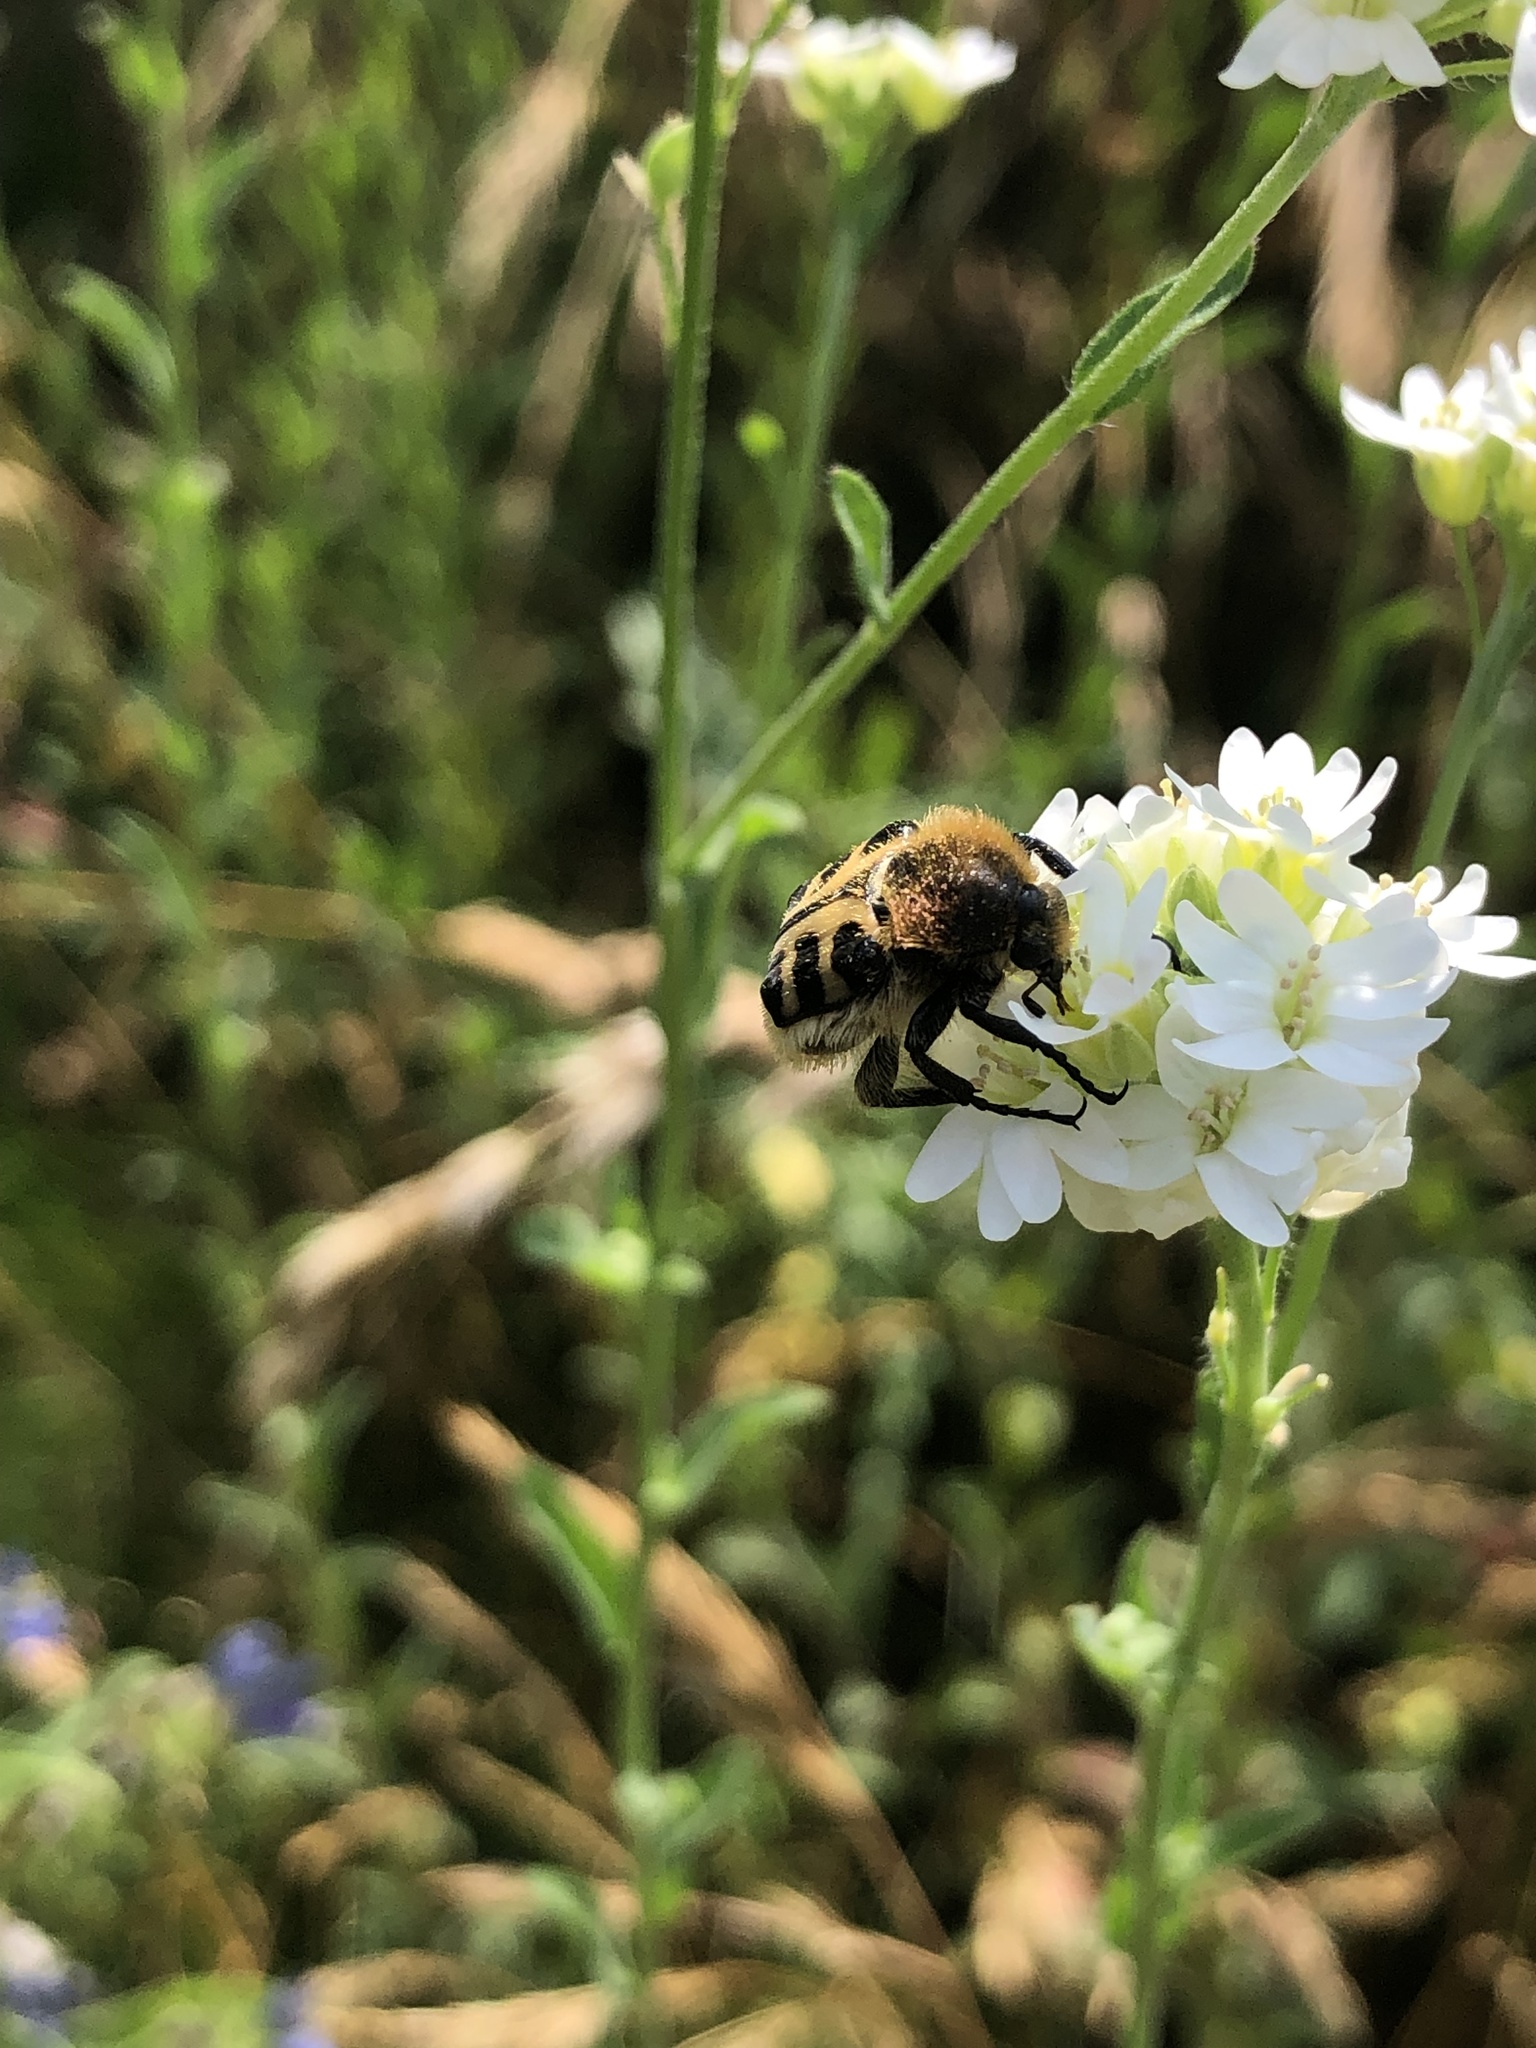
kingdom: Animalia
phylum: Arthropoda
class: Insecta
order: Coleoptera
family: Scarabaeidae
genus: Trichius
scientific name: Trichius gallicus
